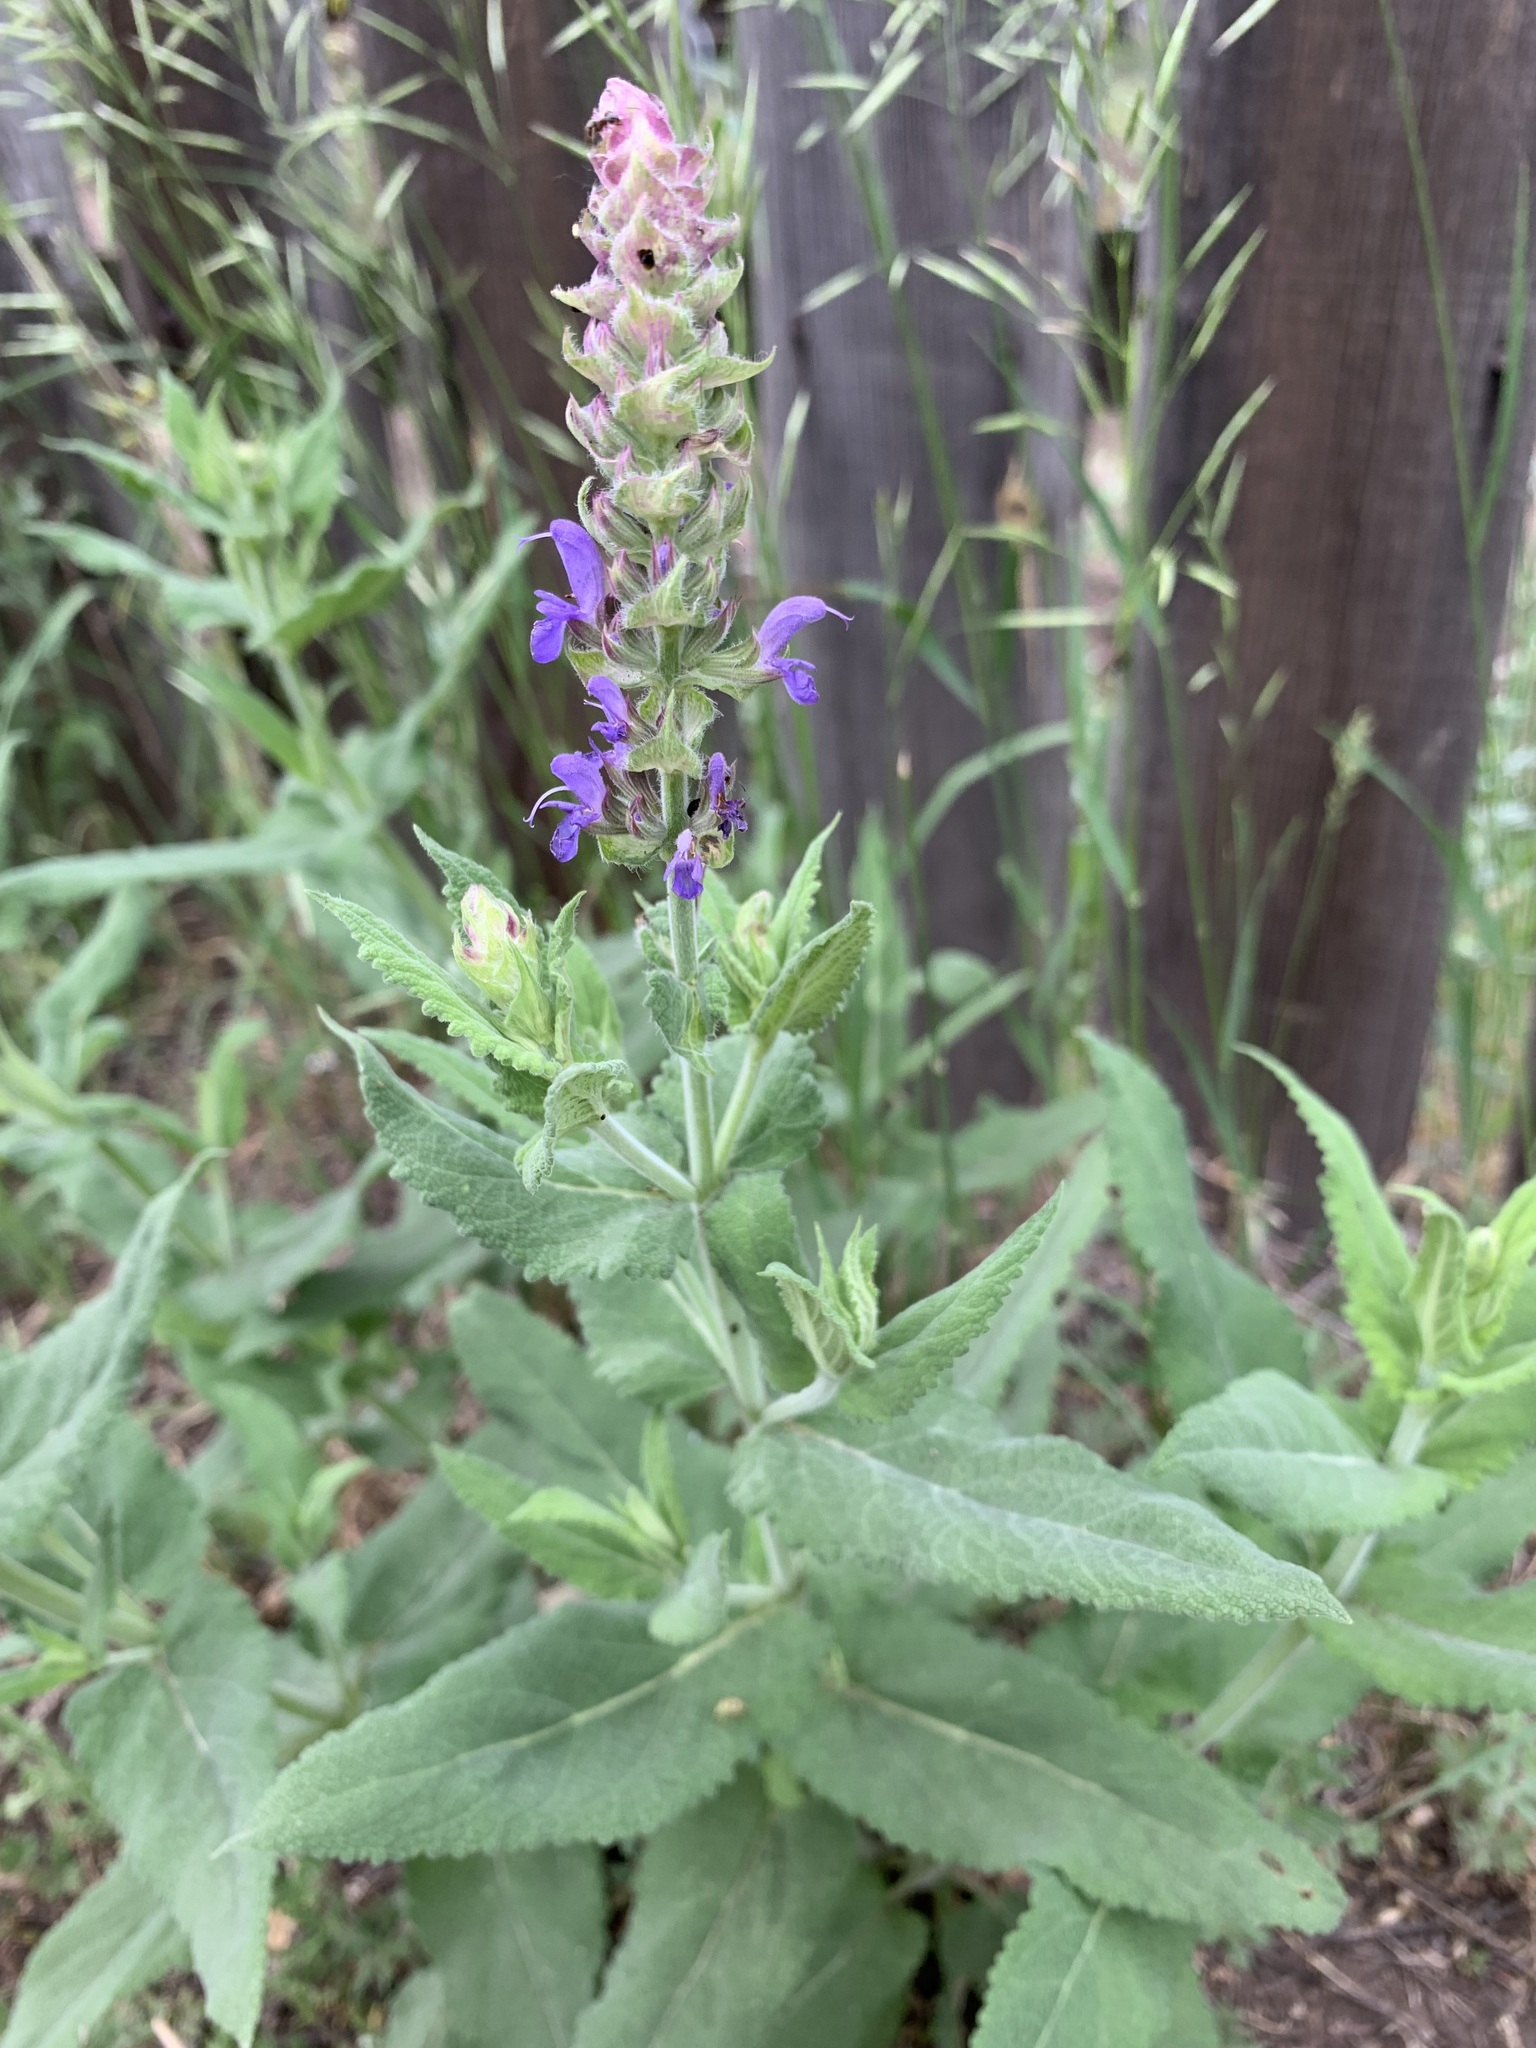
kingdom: Plantae
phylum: Tracheophyta
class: Magnoliopsida
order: Lamiales
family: Lamiaceae
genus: Salvia
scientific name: Salvia dumetorum
